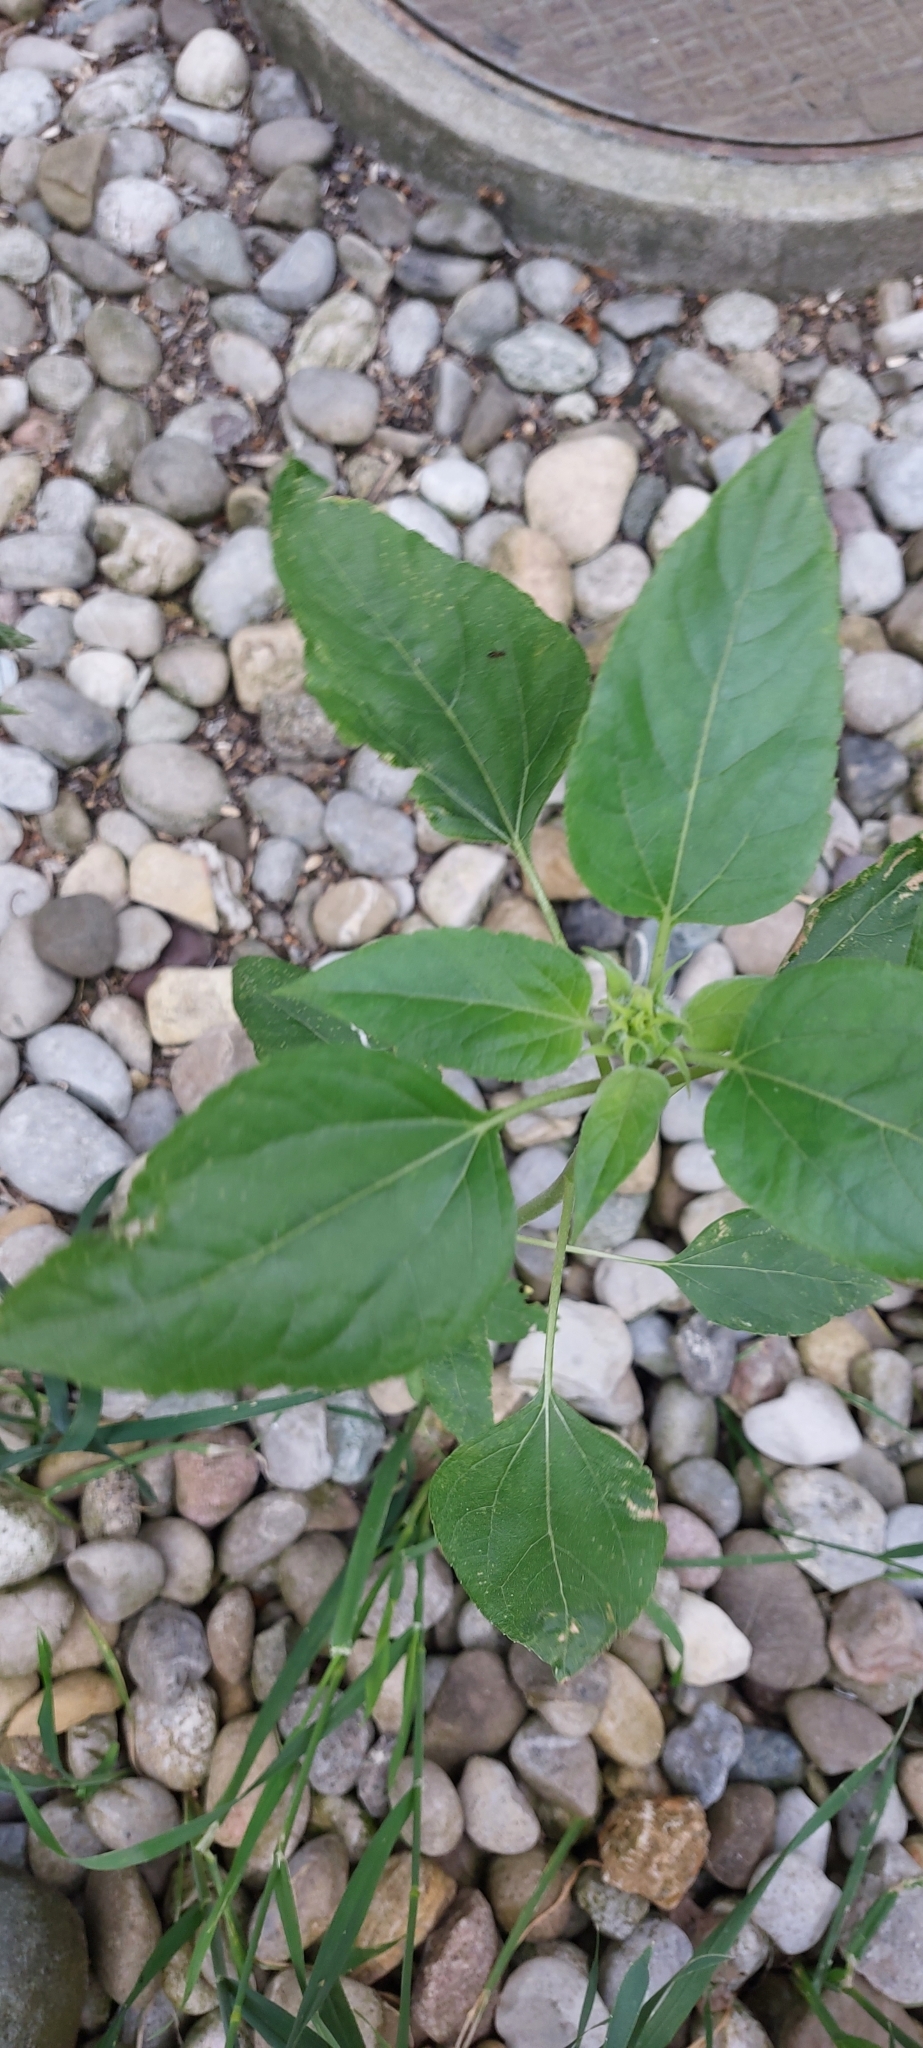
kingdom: Plantae
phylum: Tracheophyta
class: Magnoliopsida
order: Asterales
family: Asteraceae
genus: Helianthus
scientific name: Helianthus annuus
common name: Sunflower
